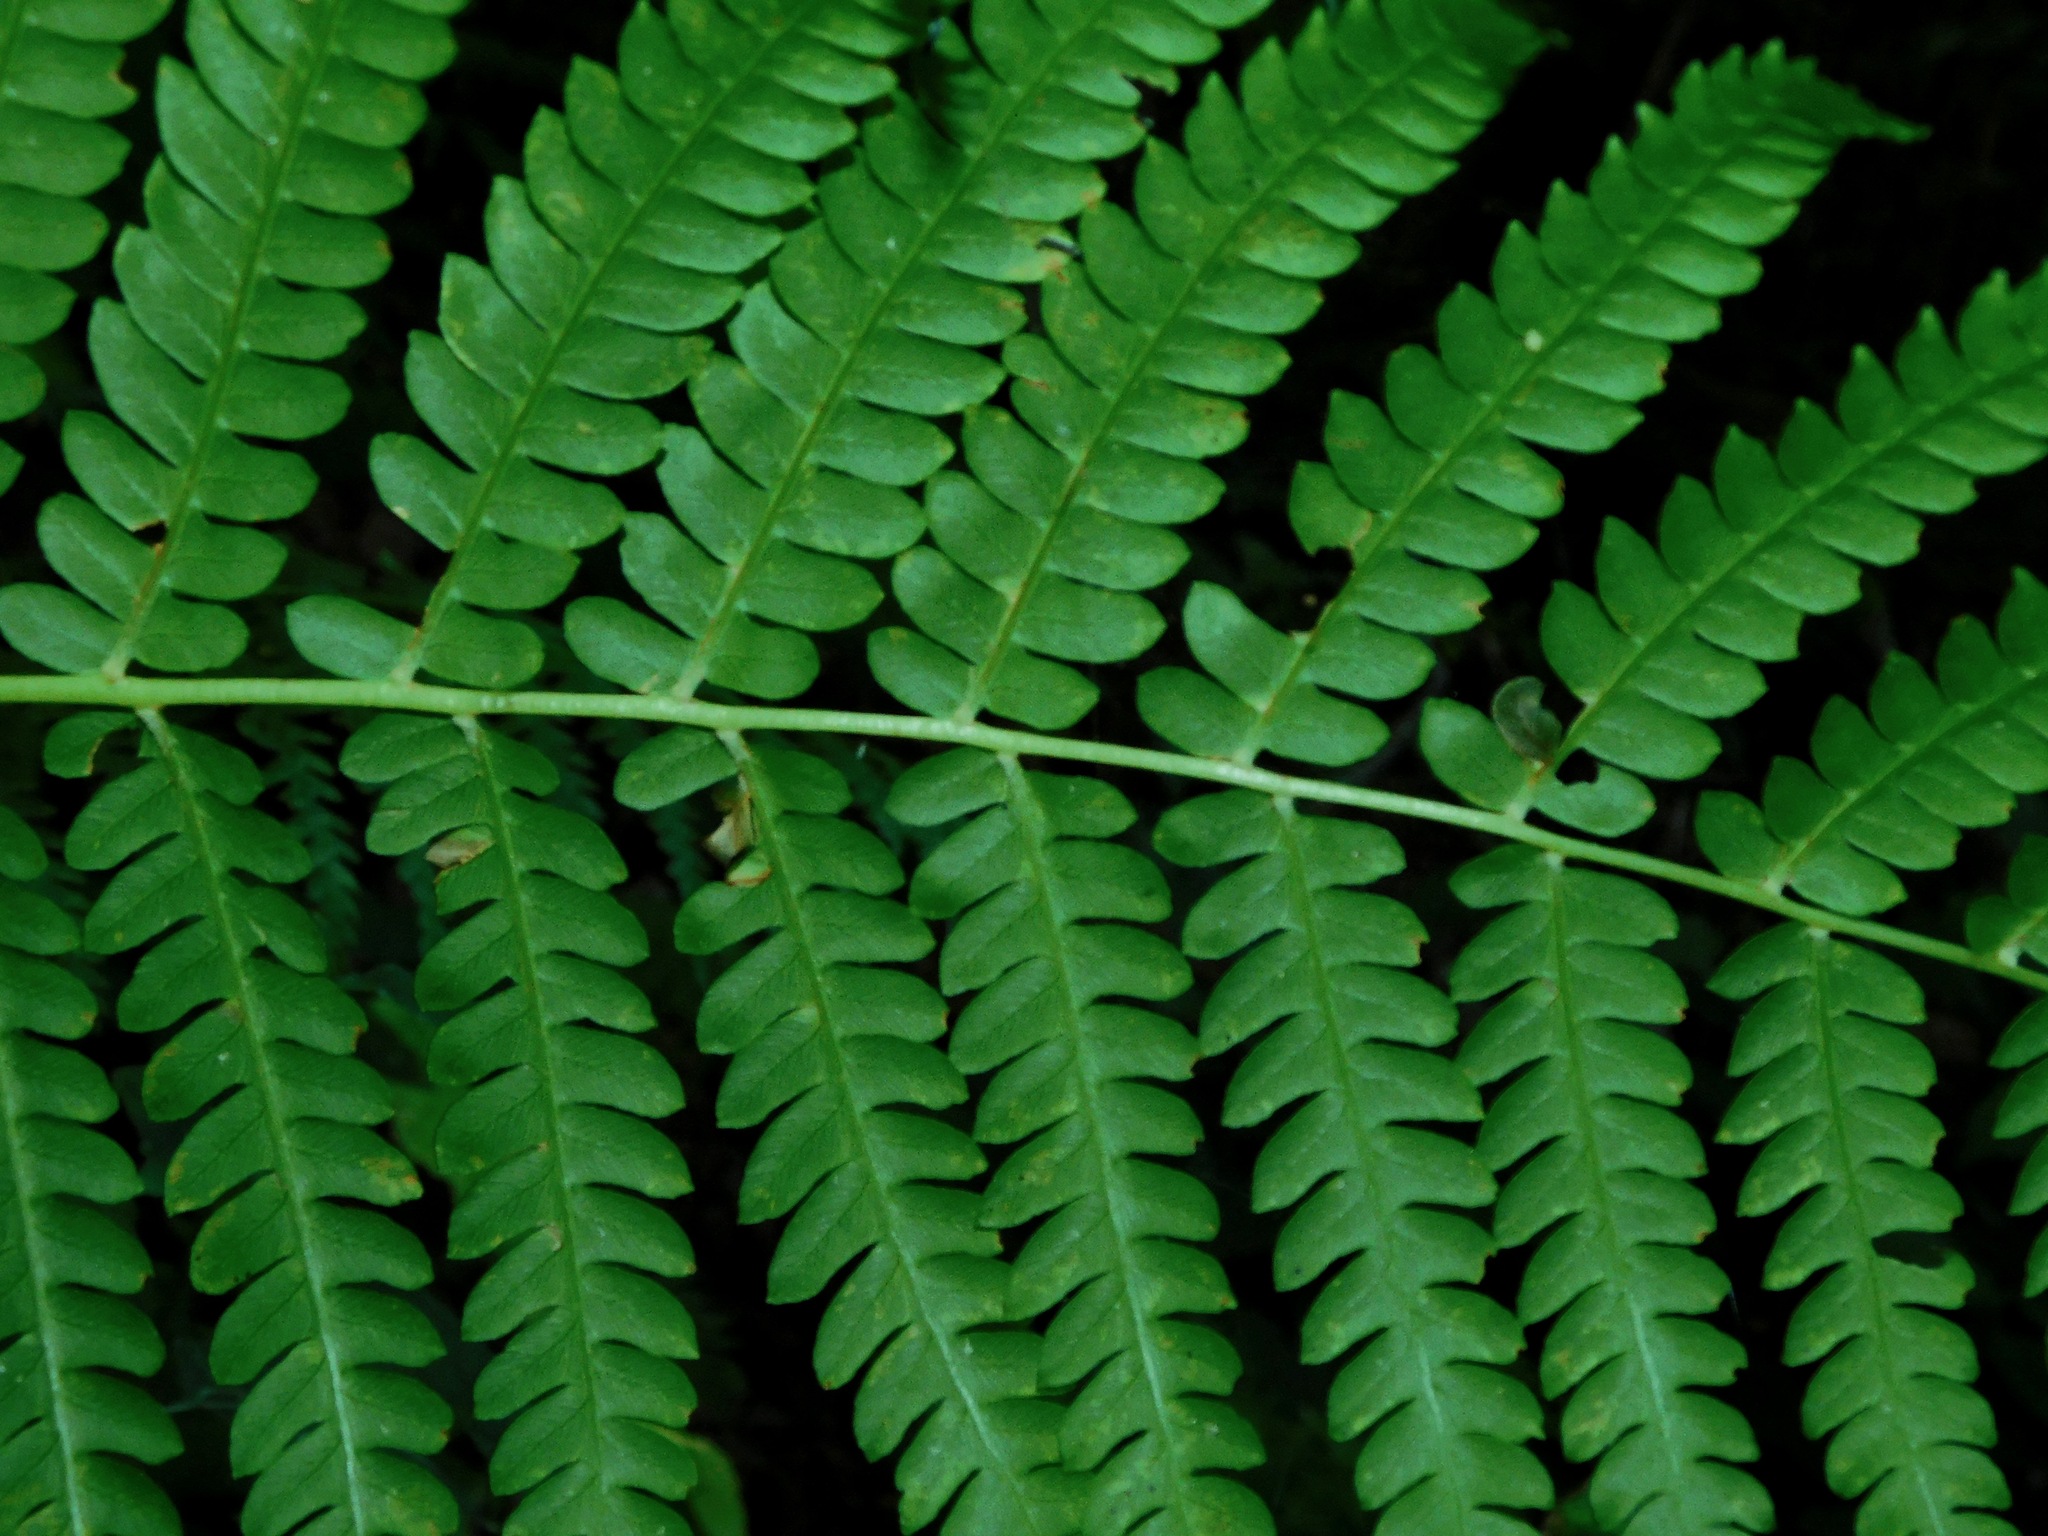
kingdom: Plantae
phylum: Tracheophyta
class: Polypodiopsida
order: Osmundales
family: Osmundaceae
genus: Osmundastrum
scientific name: Osmundastrum cinnamomeum
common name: Cinnamon fern
